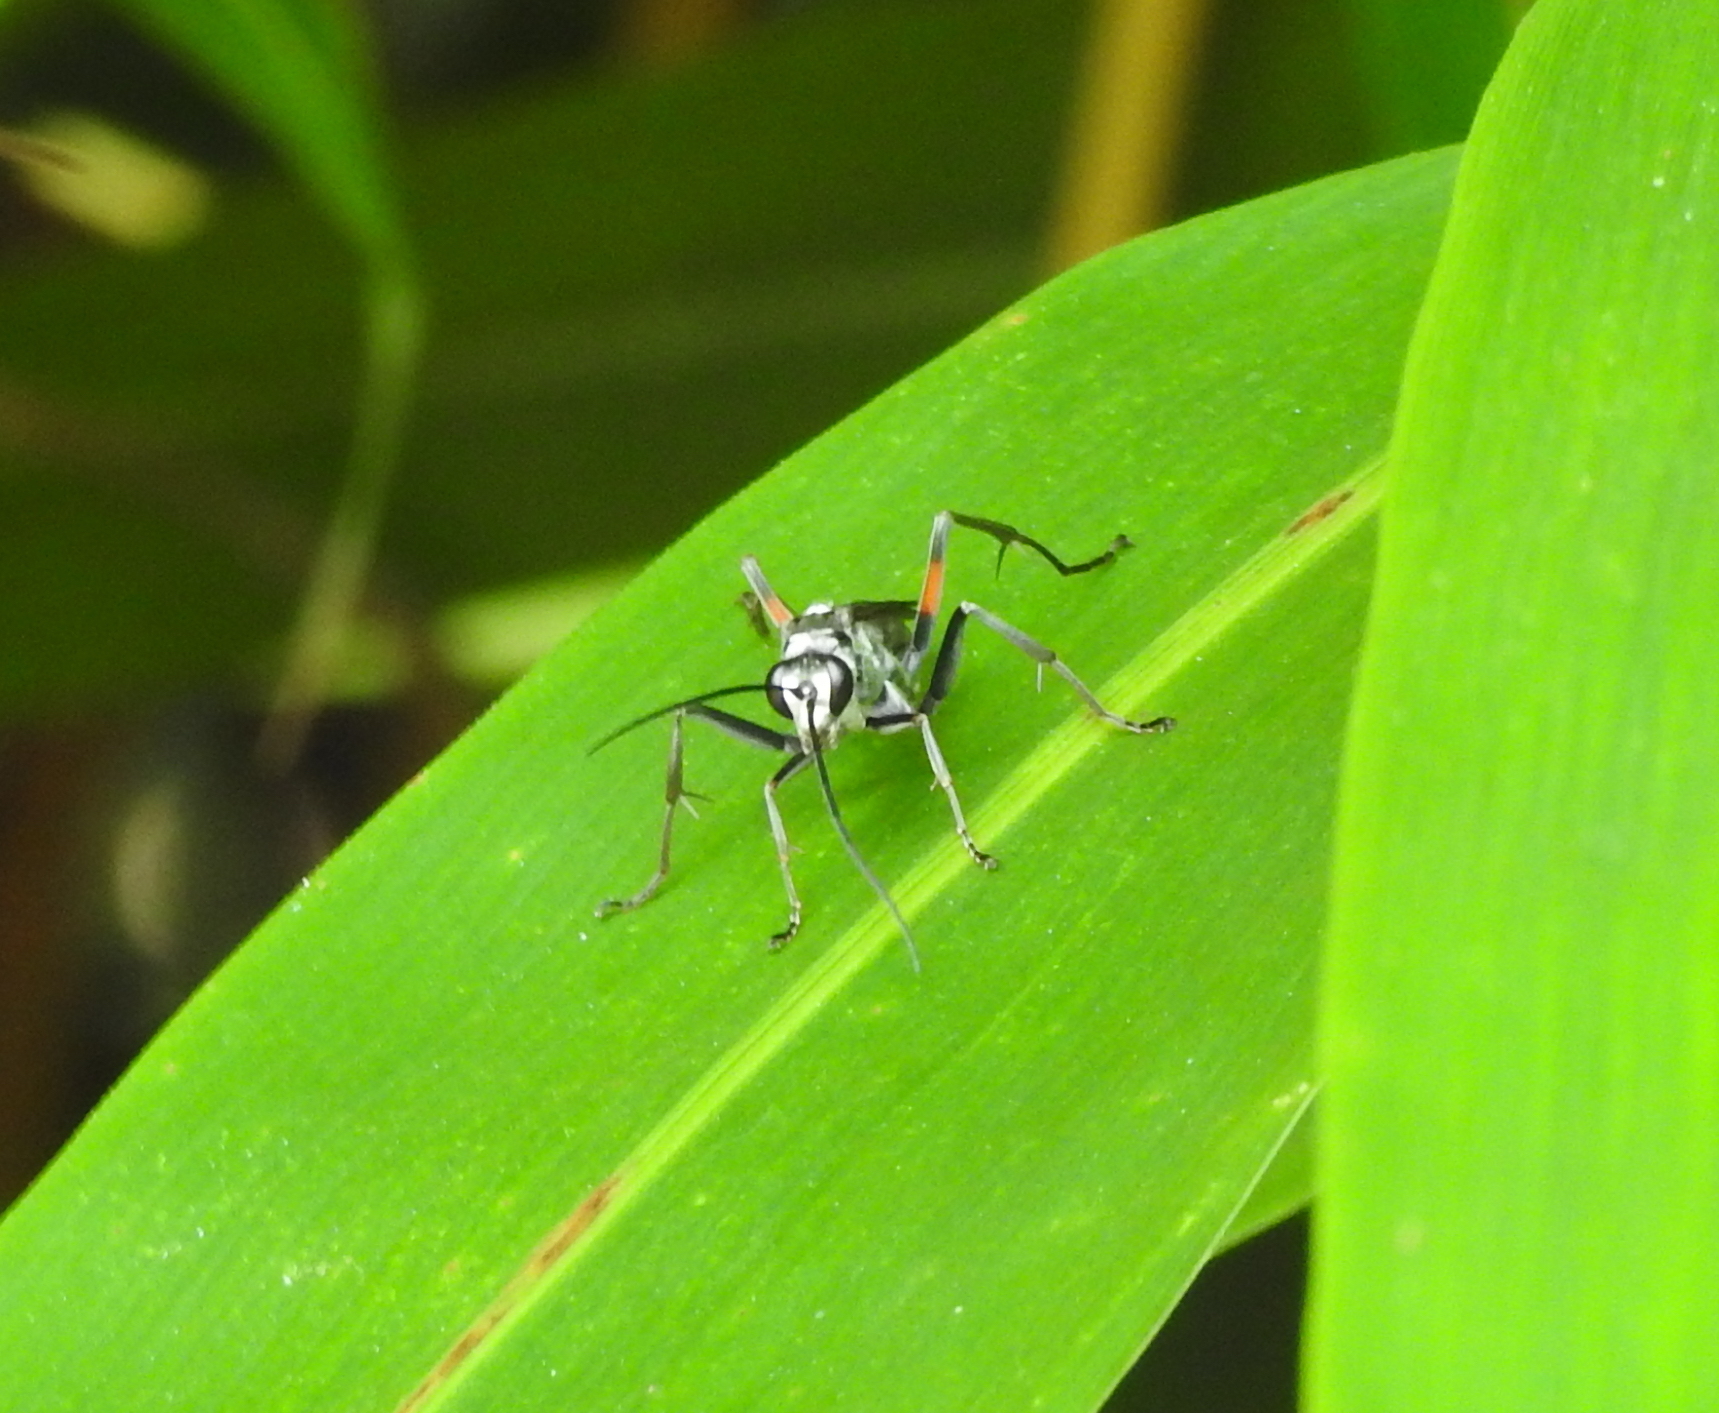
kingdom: Animalia
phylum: Arthropoda
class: Insecta
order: Hymenoptera
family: Pompilidae
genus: Paragenia
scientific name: Paragenia argentifrons
